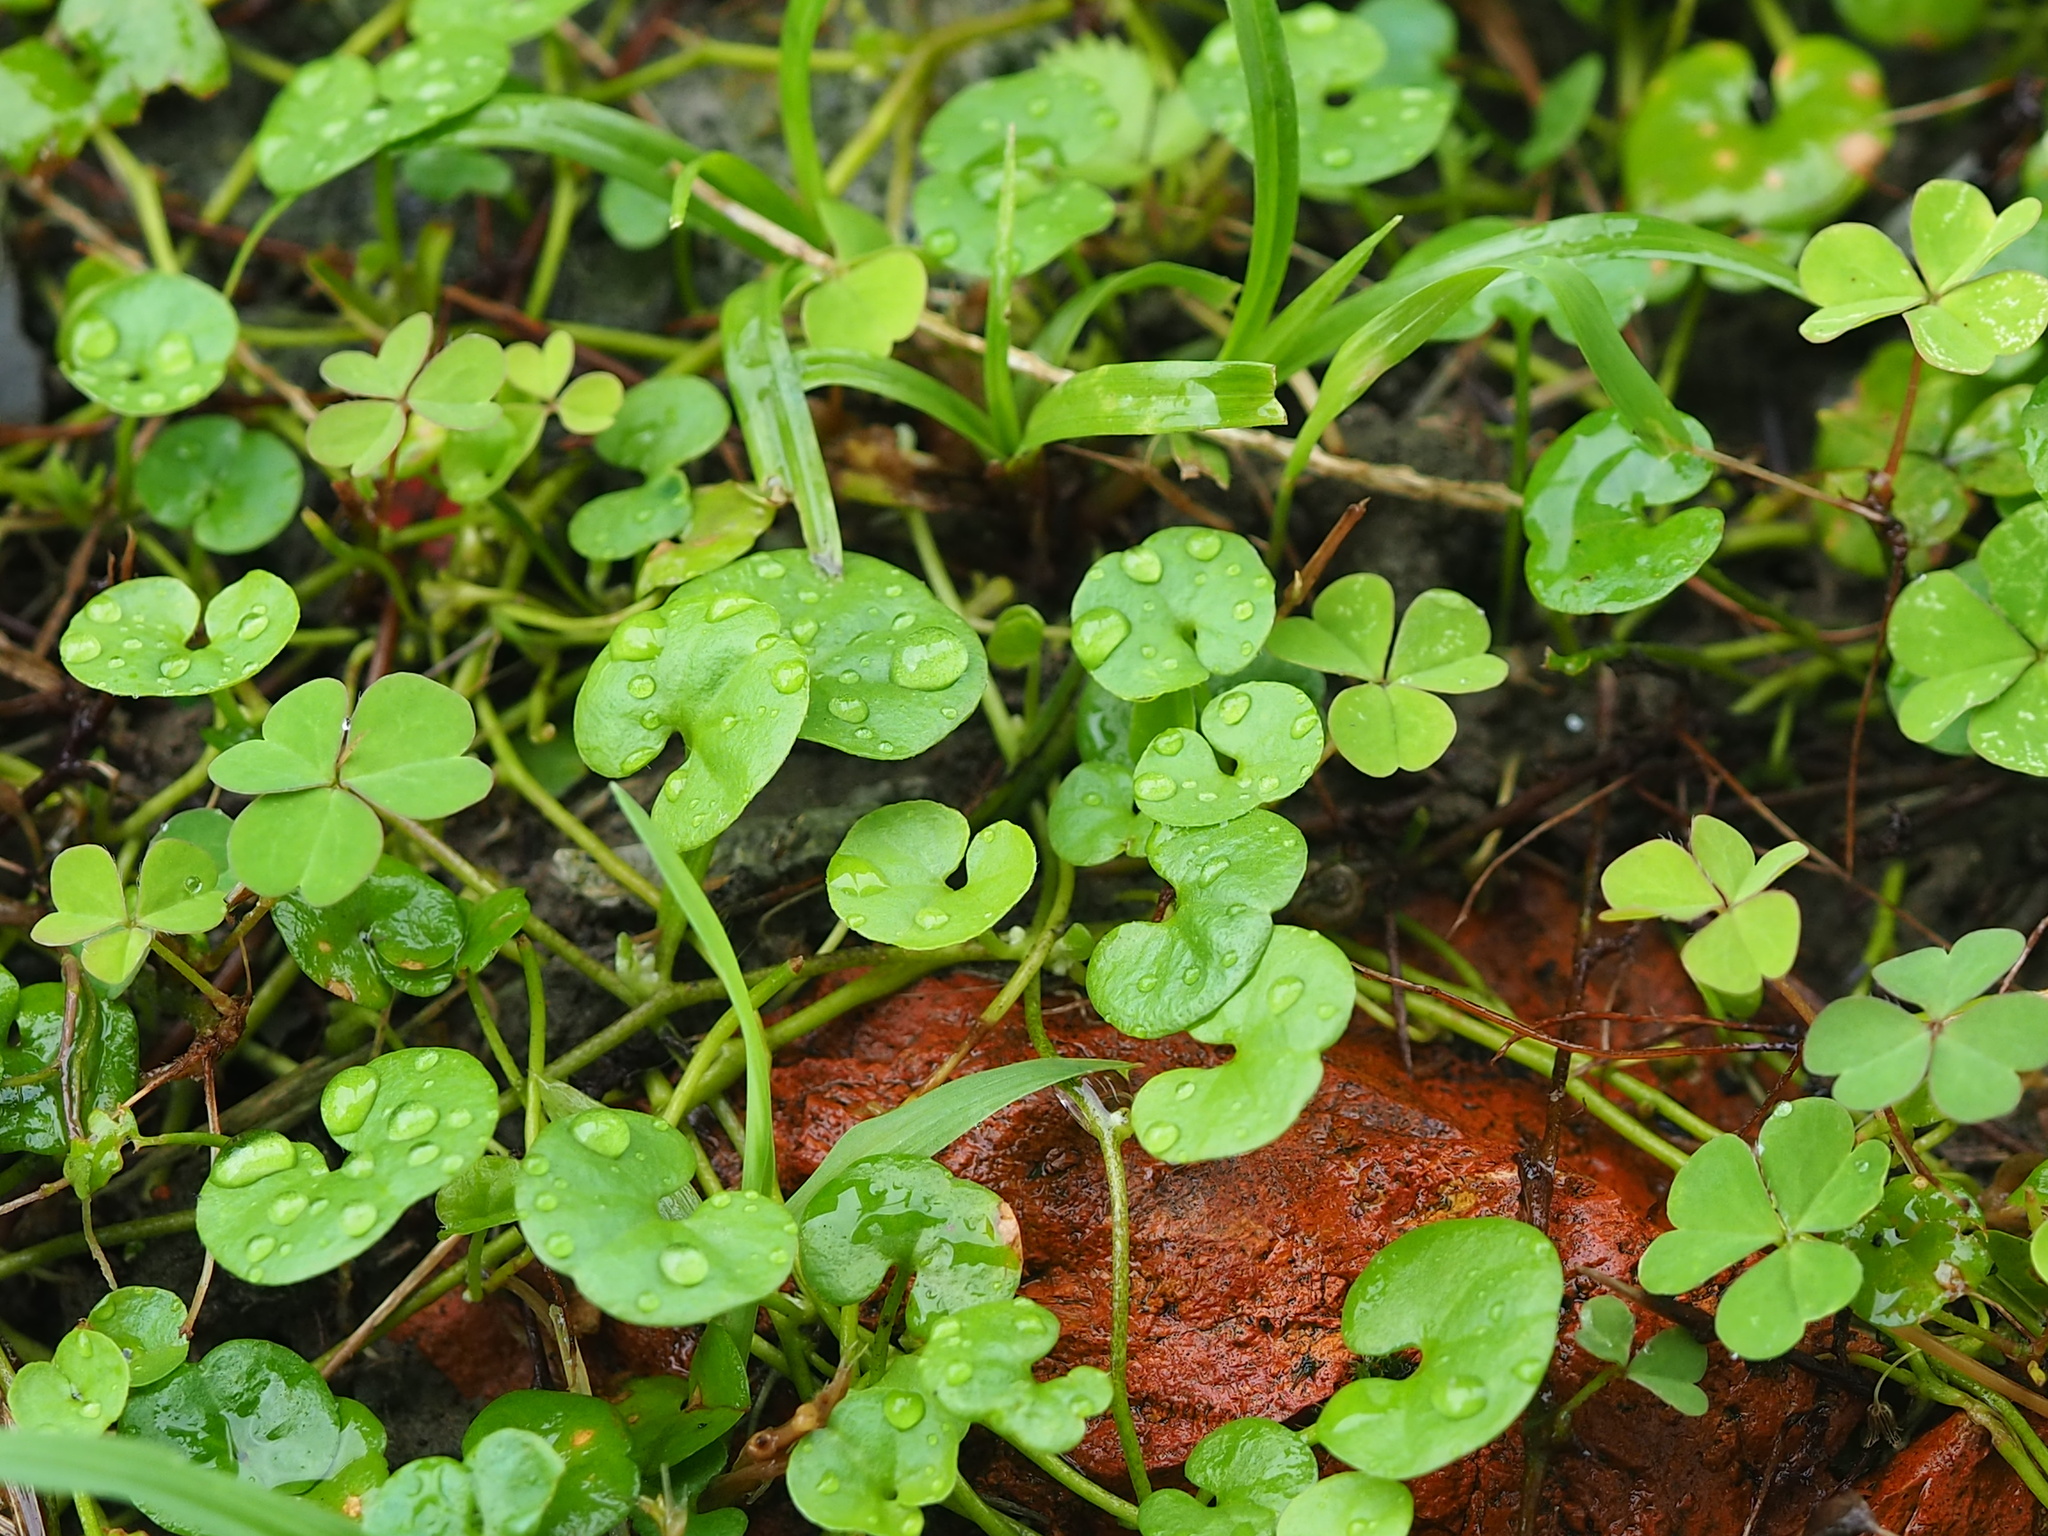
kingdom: Plantae
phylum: Tracheophyta
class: Magnoliopsida
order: Solanales
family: Convolvulaceae
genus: Dichondra
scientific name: Dichondra micrantha
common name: Kidneyweed
